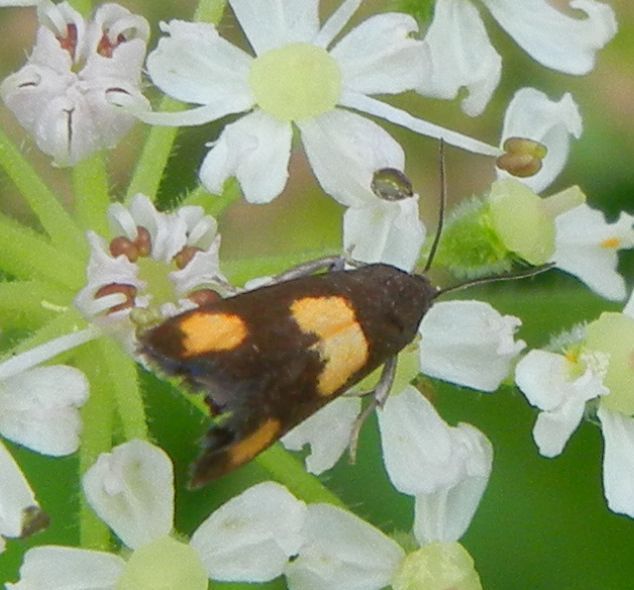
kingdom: Animalia
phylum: Arthropoda
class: Insecta
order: Lepidoptera
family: Tortricidae
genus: Pammene
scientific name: Pammene aurana
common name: Orange-spot piercer
